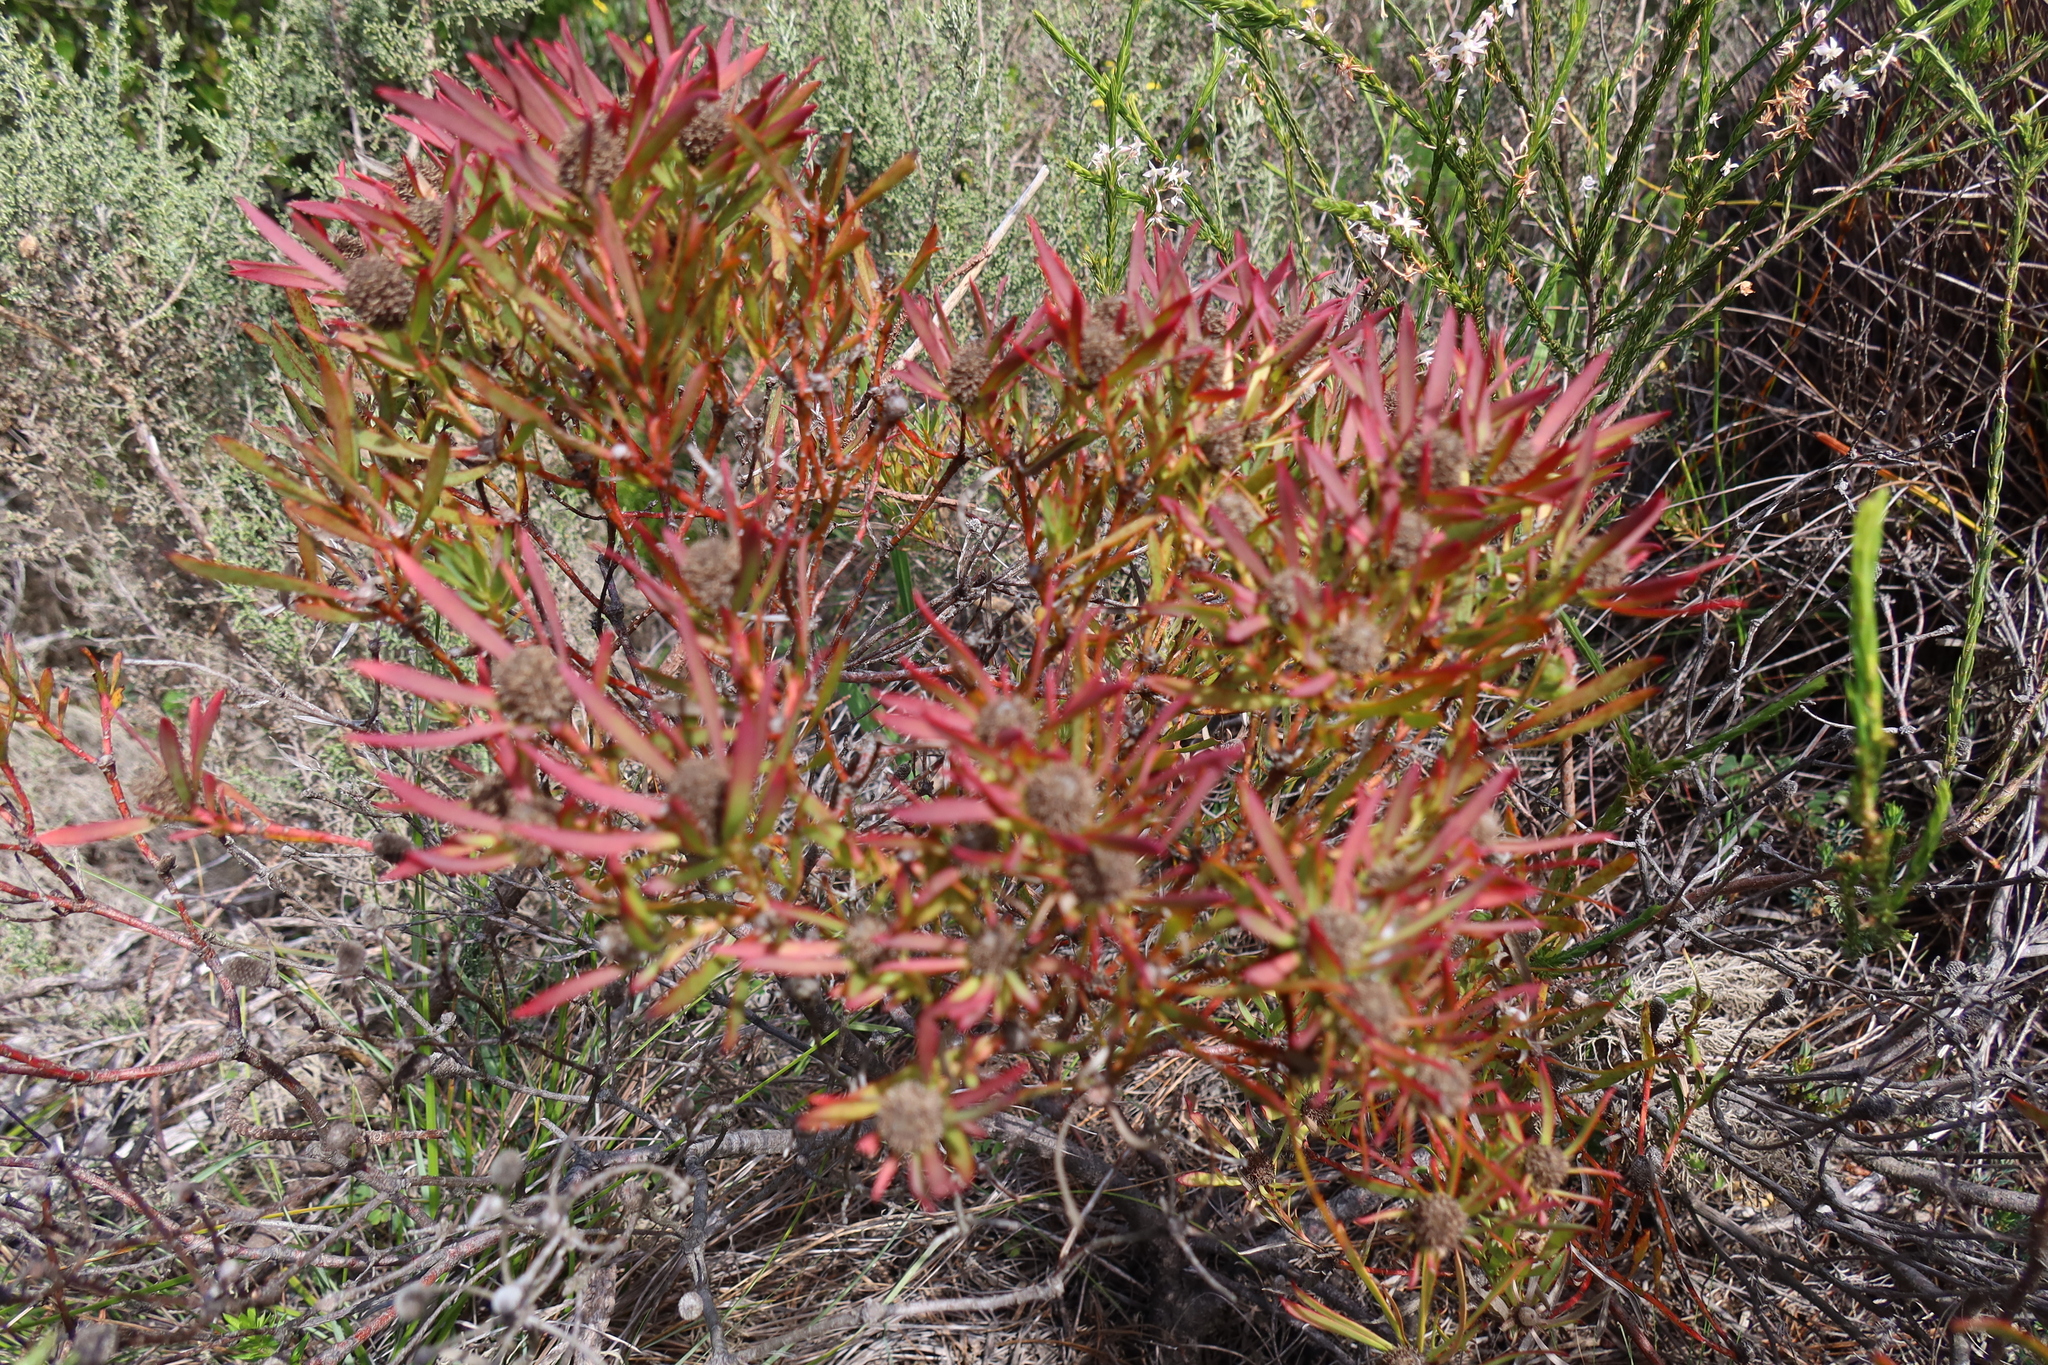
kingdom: Plantae
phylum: Tracheophyta
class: Magnoliopsida
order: Proteales
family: Proteaceae
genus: Leucadendron
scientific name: Leucadendron salignum
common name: Common sunshine conebush
